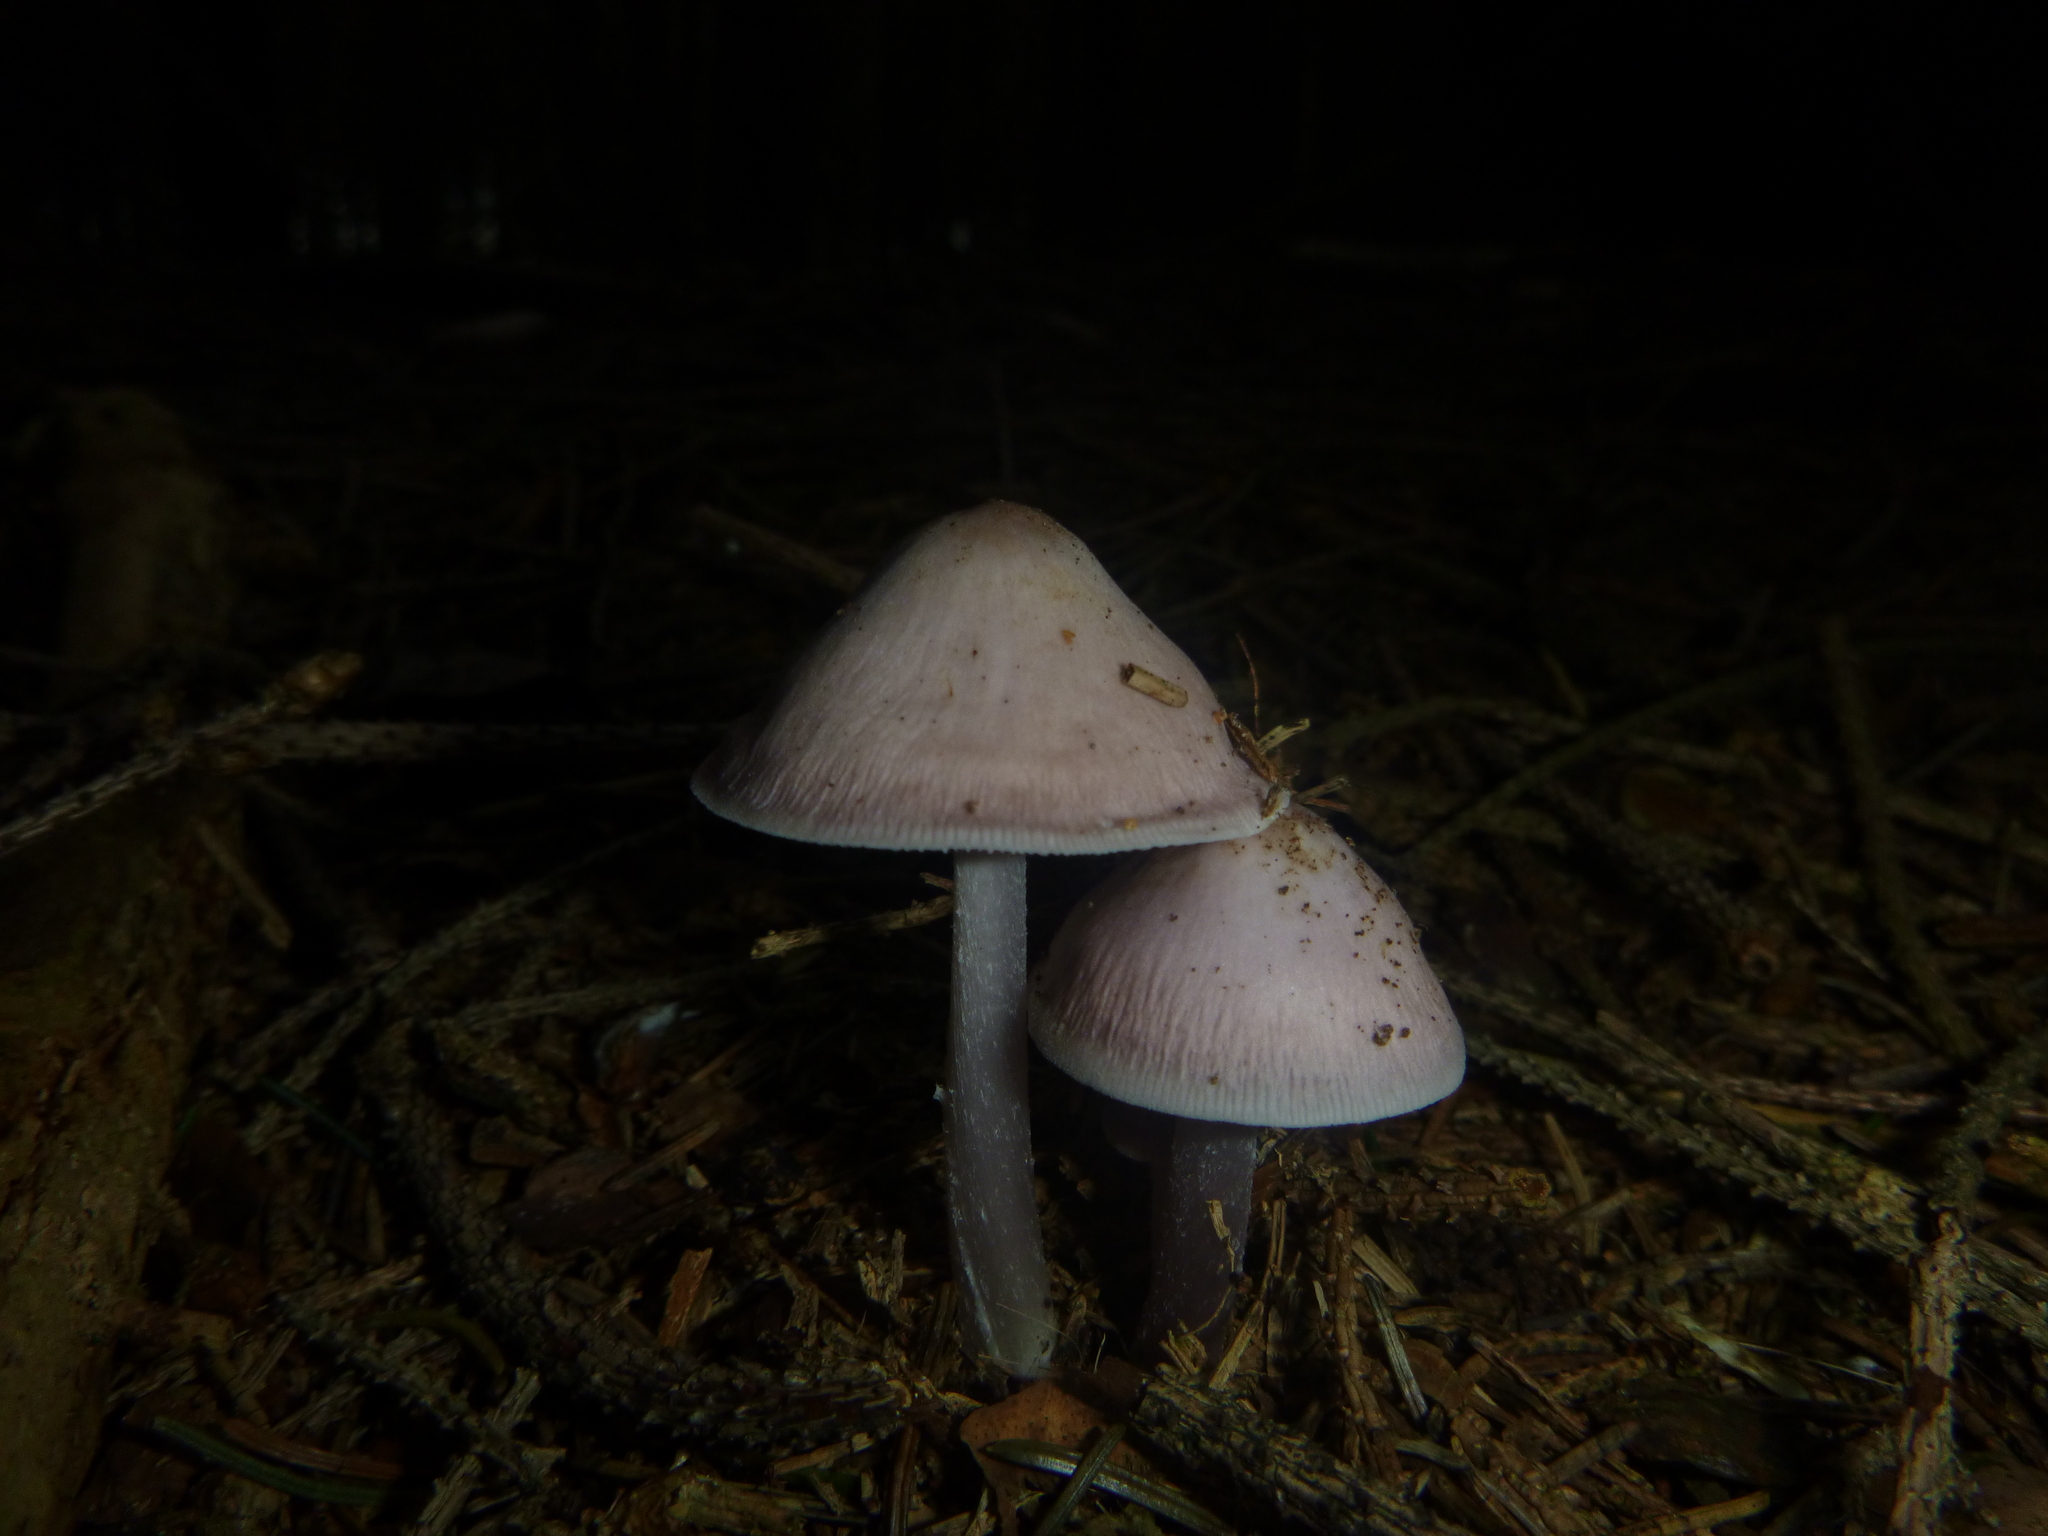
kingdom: Fungi
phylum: Basidiomycota
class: Agaricomycetes
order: Agaricales
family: Mycenaceae
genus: Mycena
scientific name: Mycena pura
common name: Lilac bonnet
